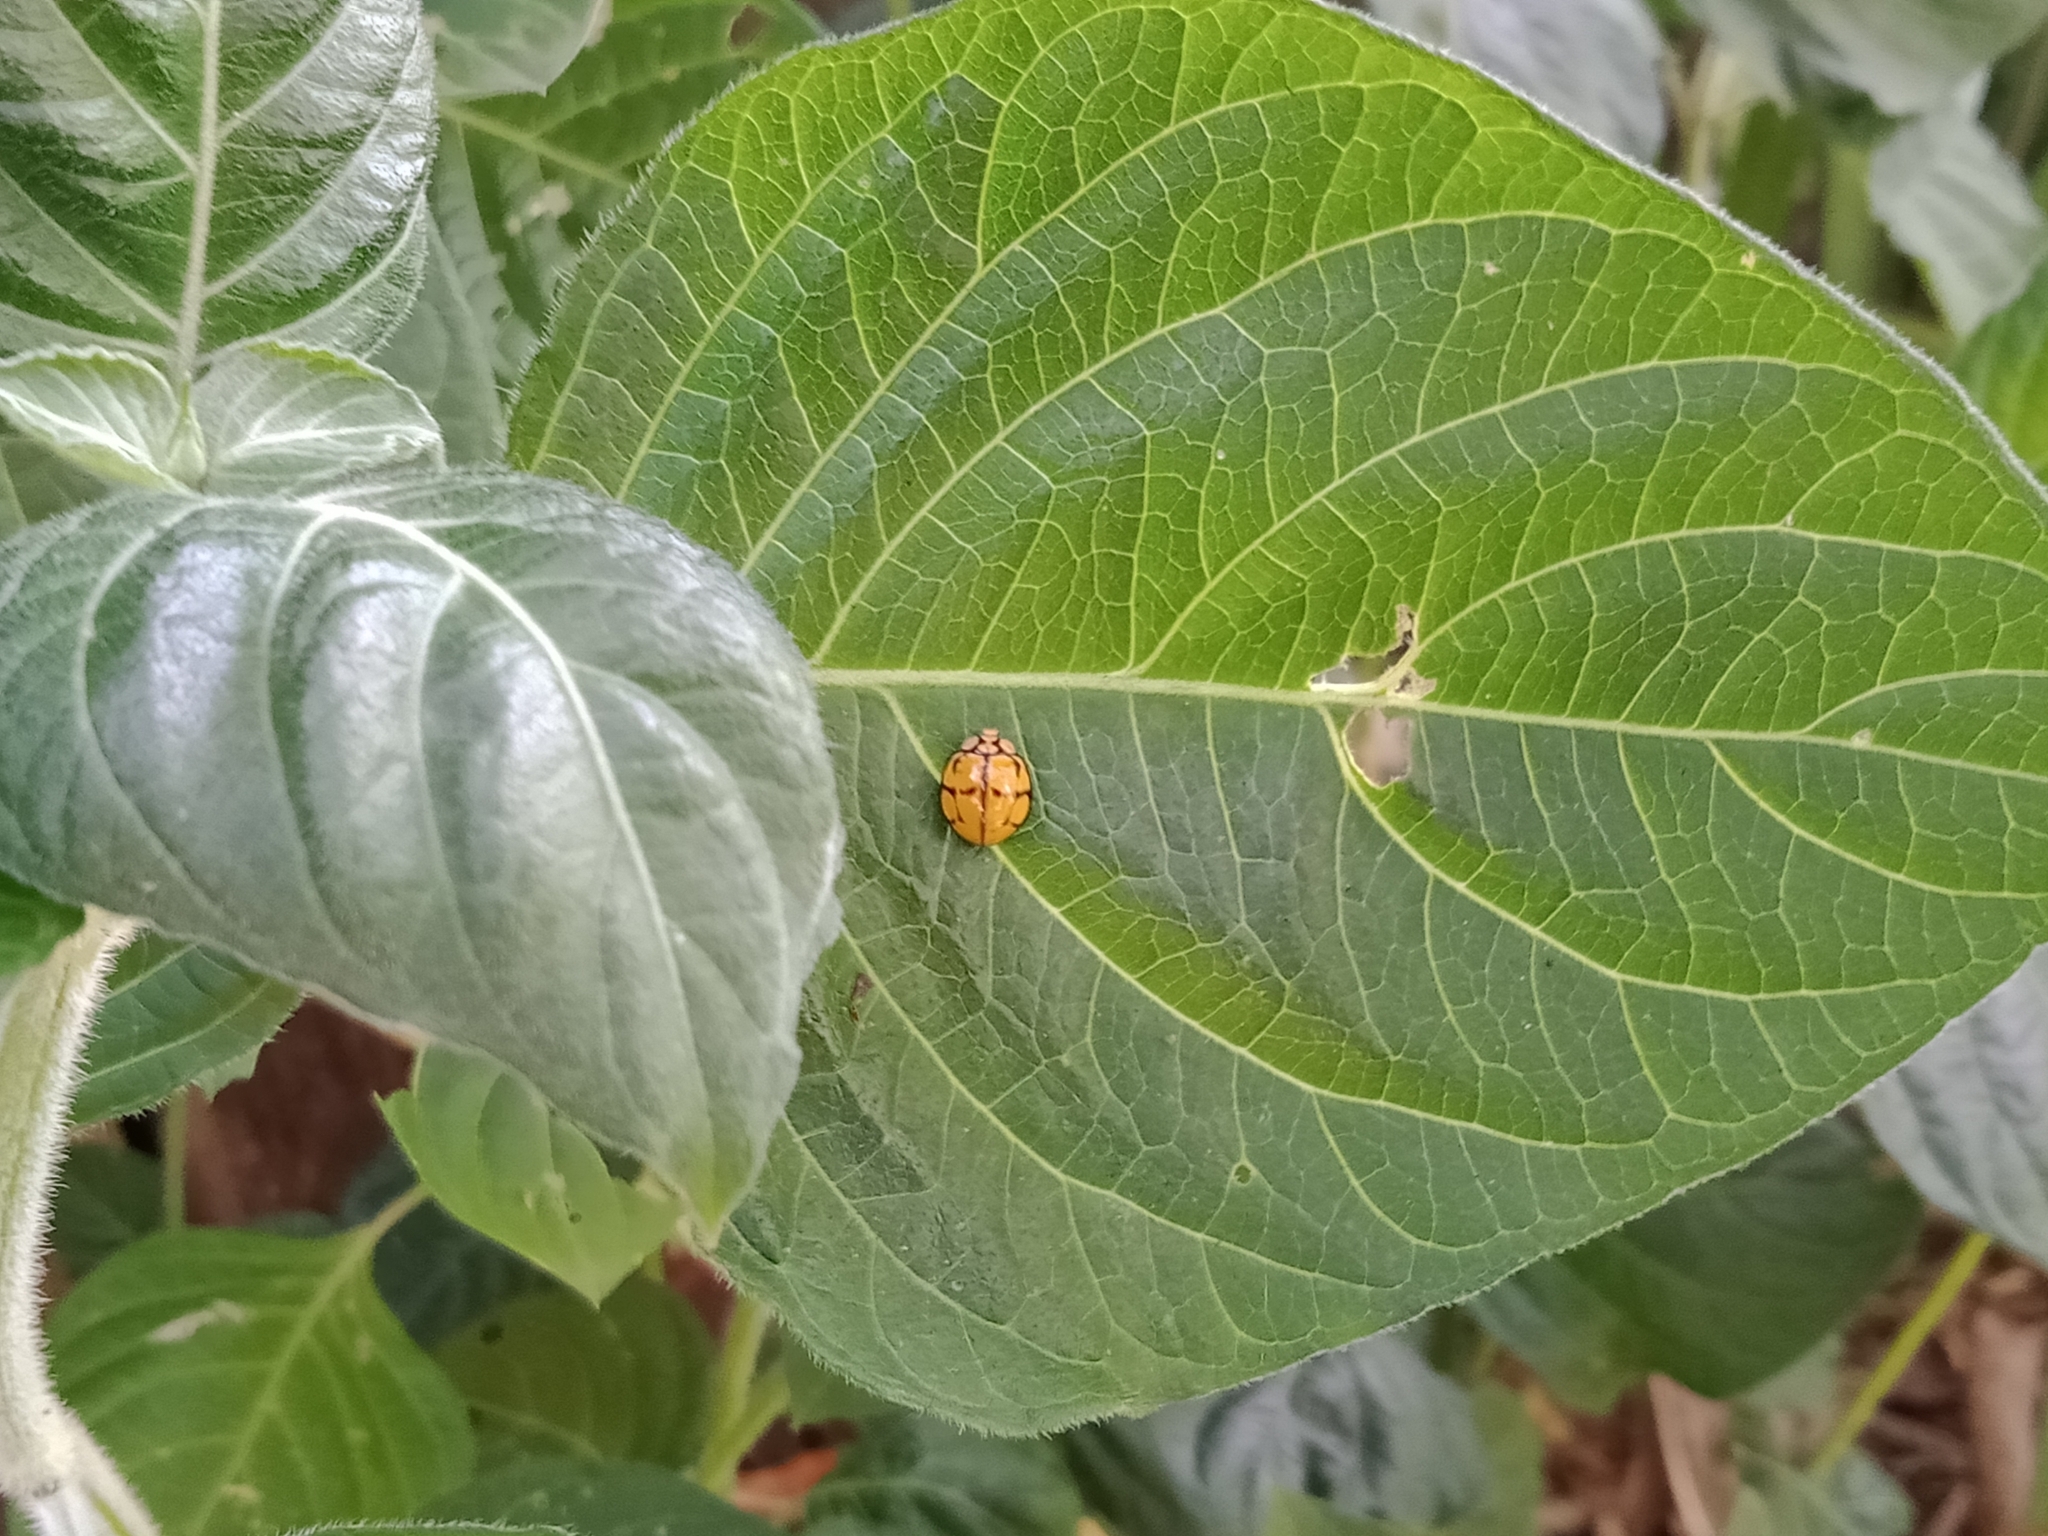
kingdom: Animalia
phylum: Arthropoda
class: Insecta
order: Coleoptera
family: Coccinellidae
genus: Harmonia
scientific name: Harmonia
